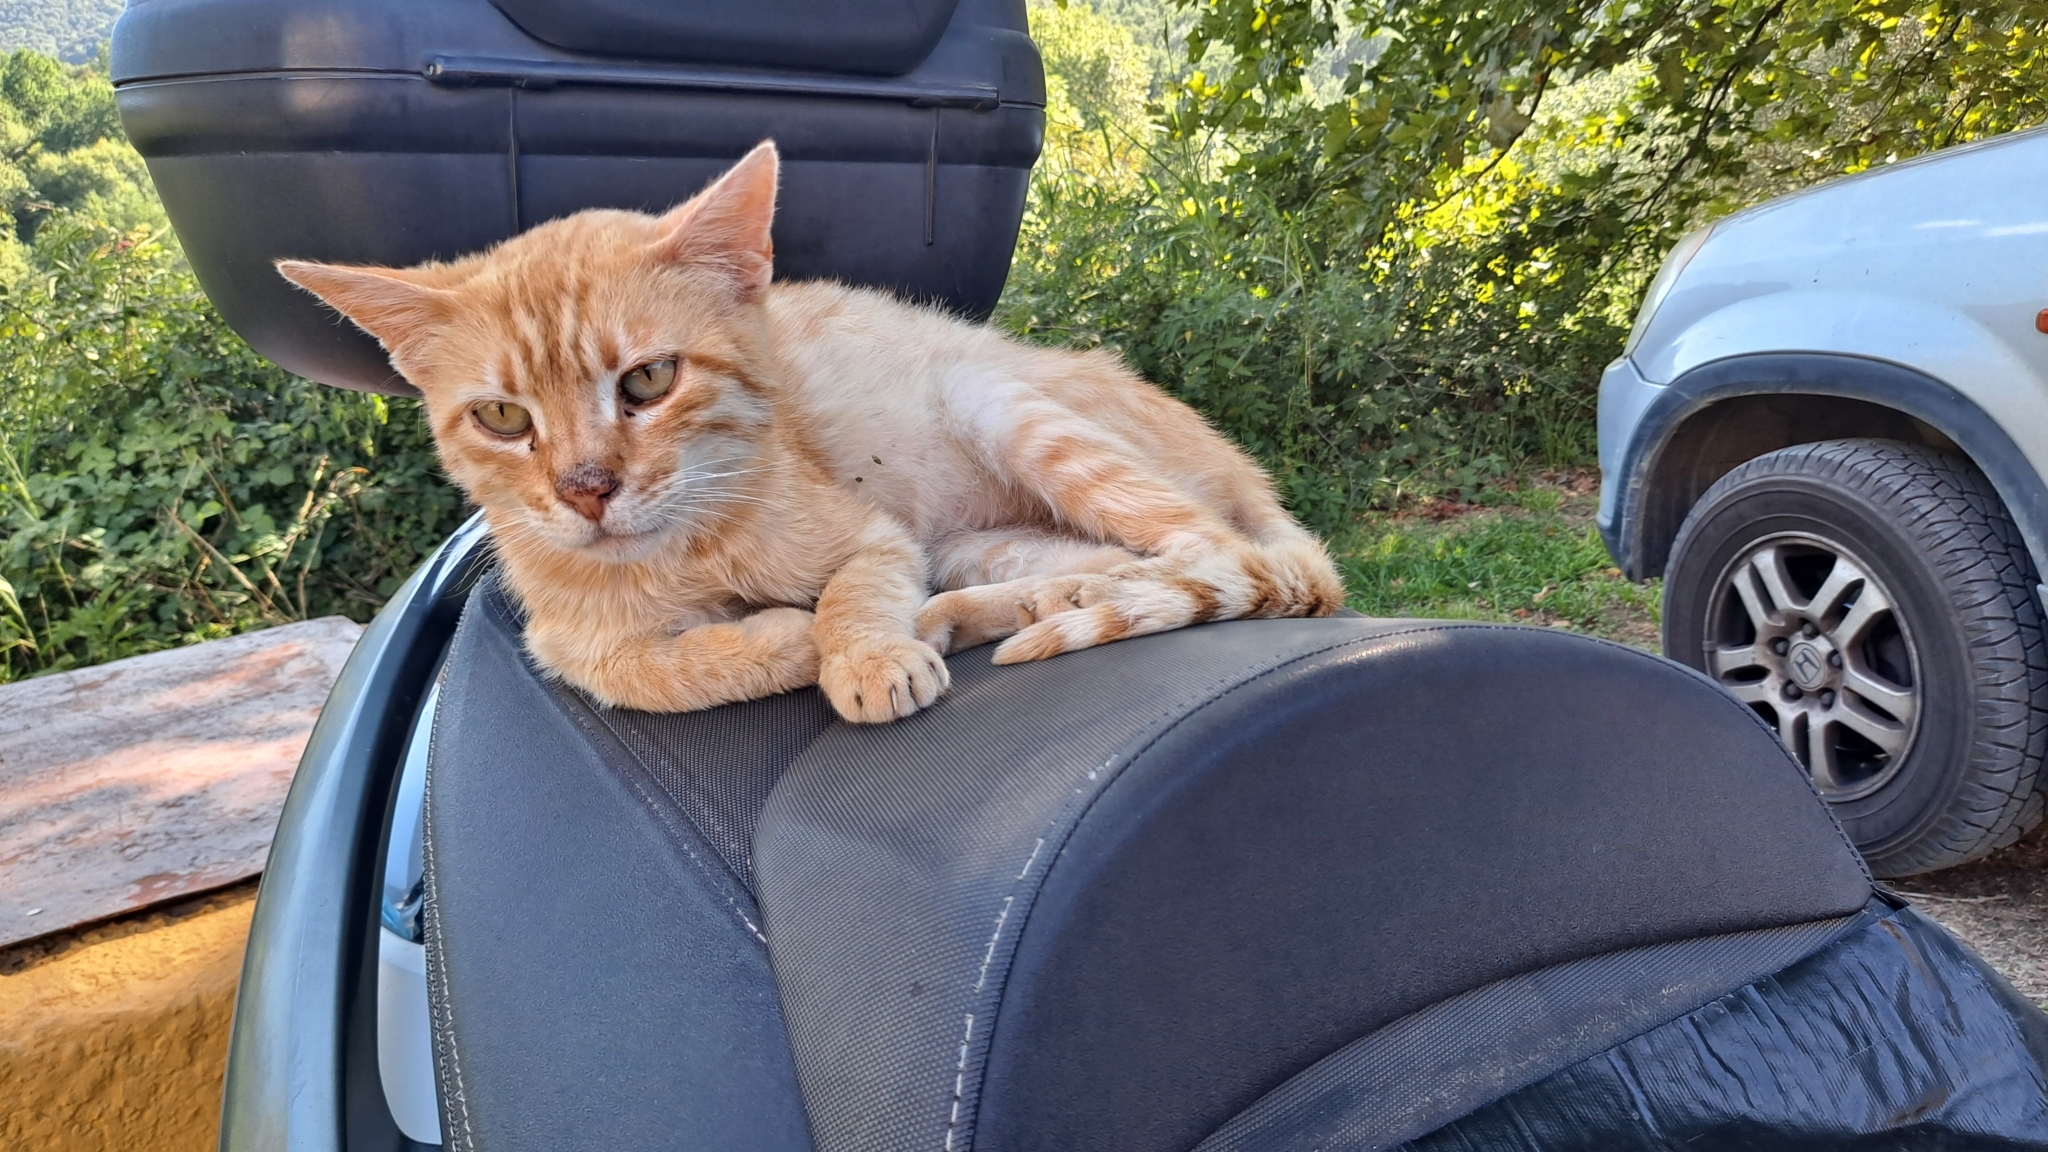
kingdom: Animalia
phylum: Chordata
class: Mammalia
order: Carnivora
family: Felidae
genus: Felis
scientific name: Felis catus
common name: Domestic cat
